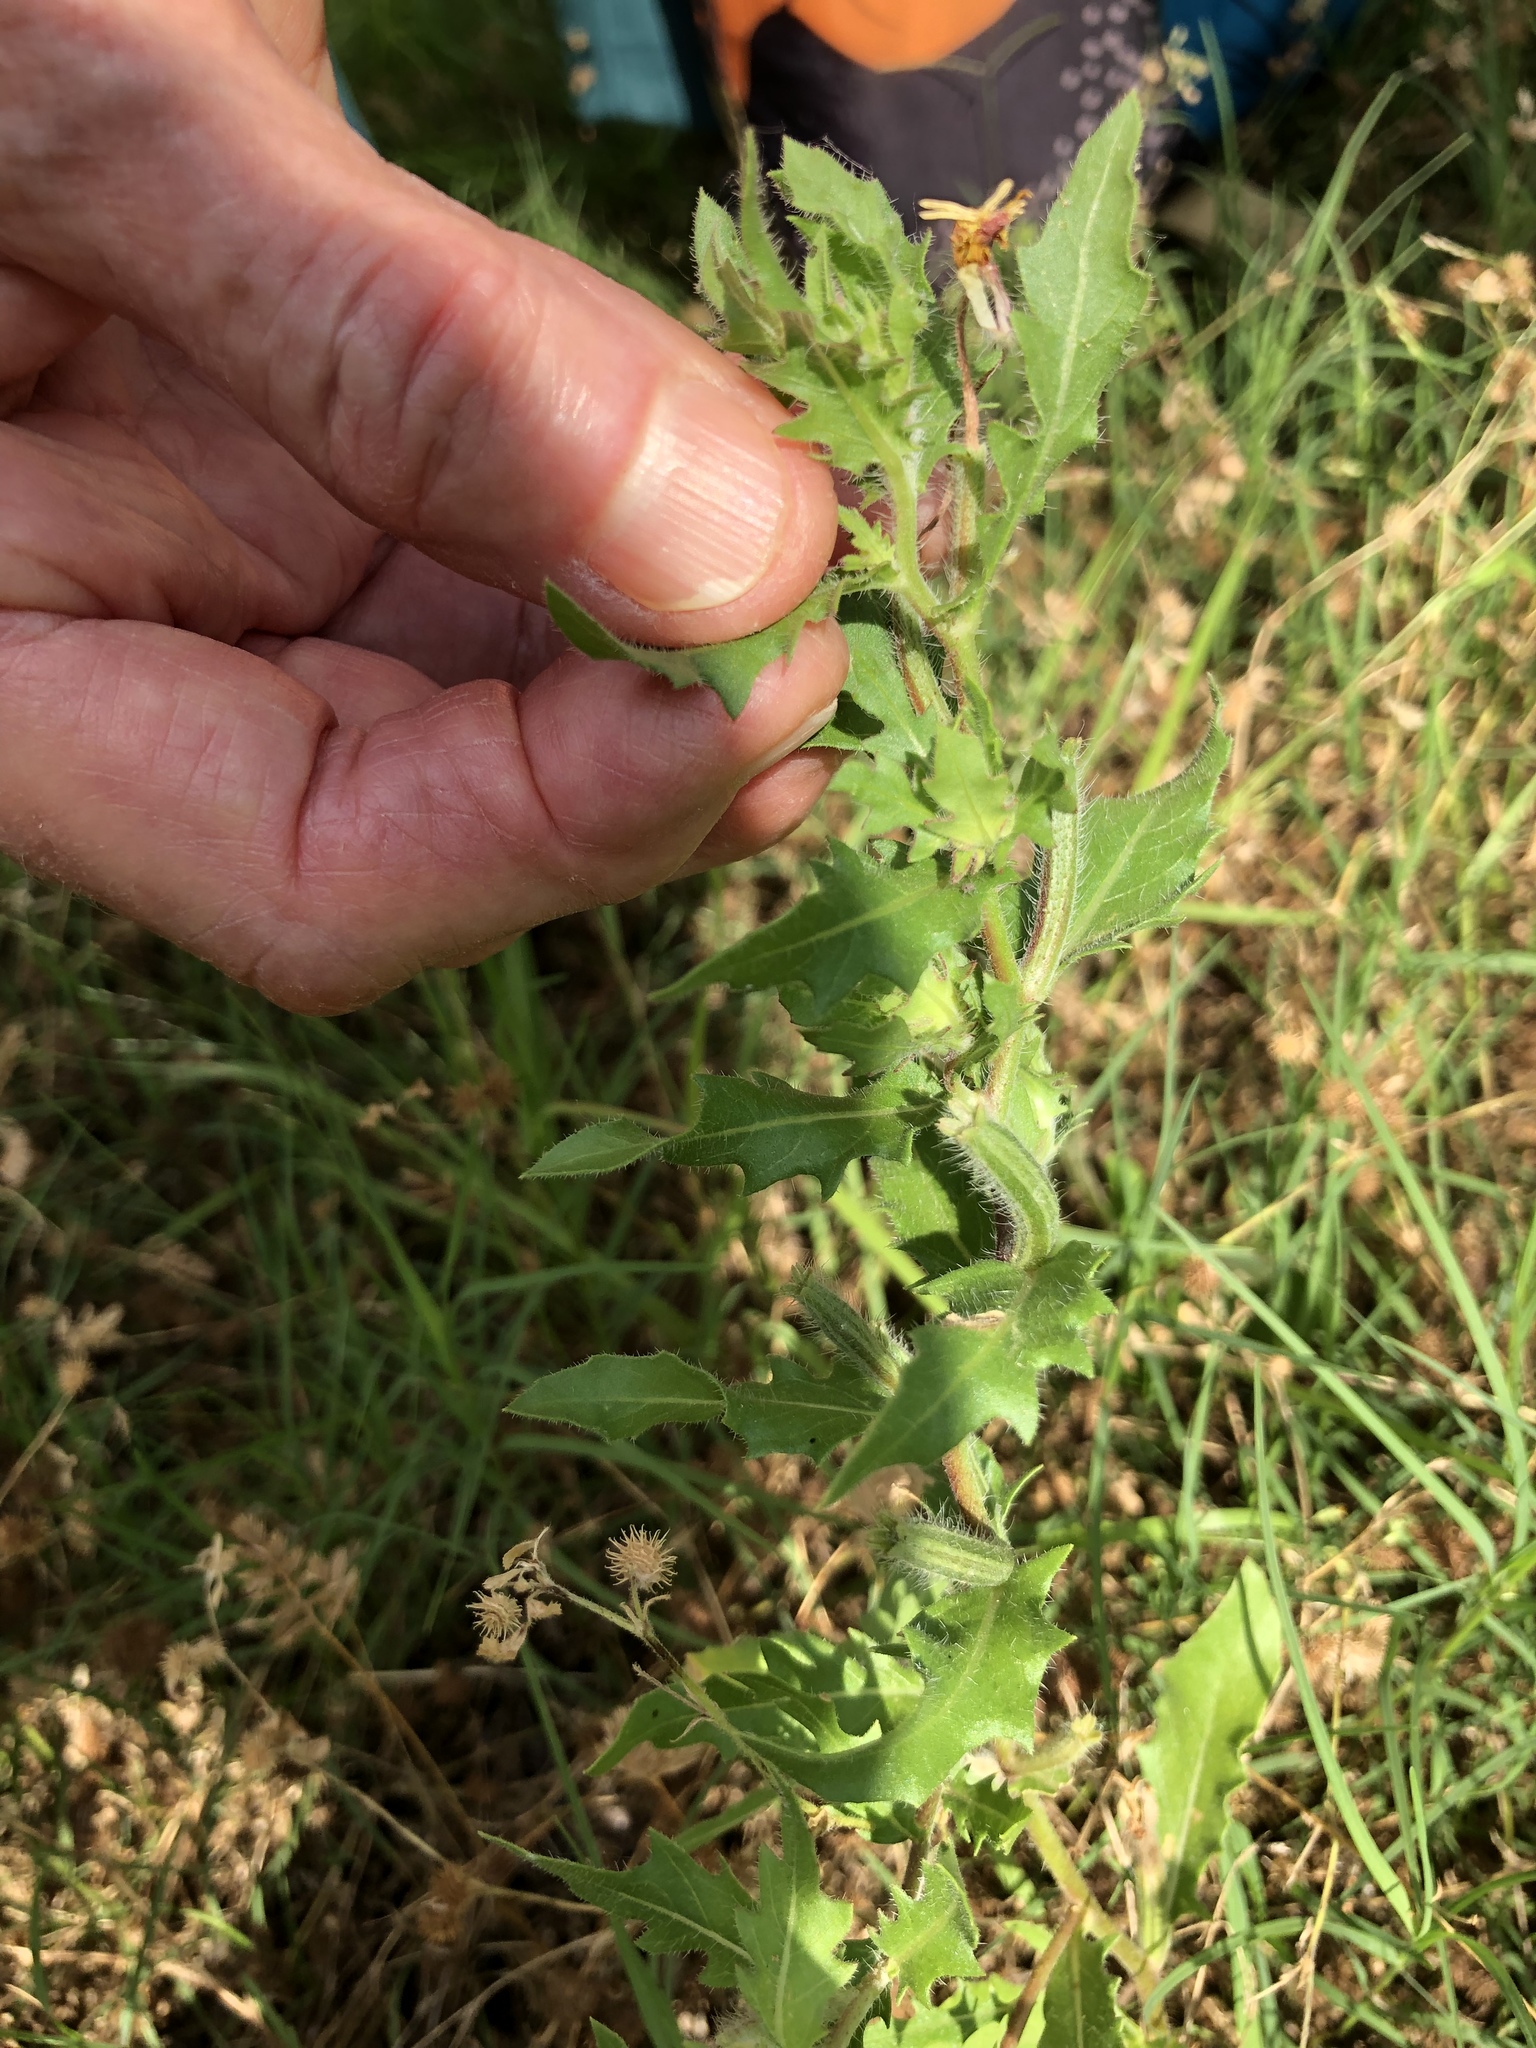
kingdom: Plantae
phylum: Tracheophyta
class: Magnoliopsida
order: Myrtales
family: Onagraceae
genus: Oenothera
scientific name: Oenothera laciniata
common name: Cut-leaved evening-primrose
